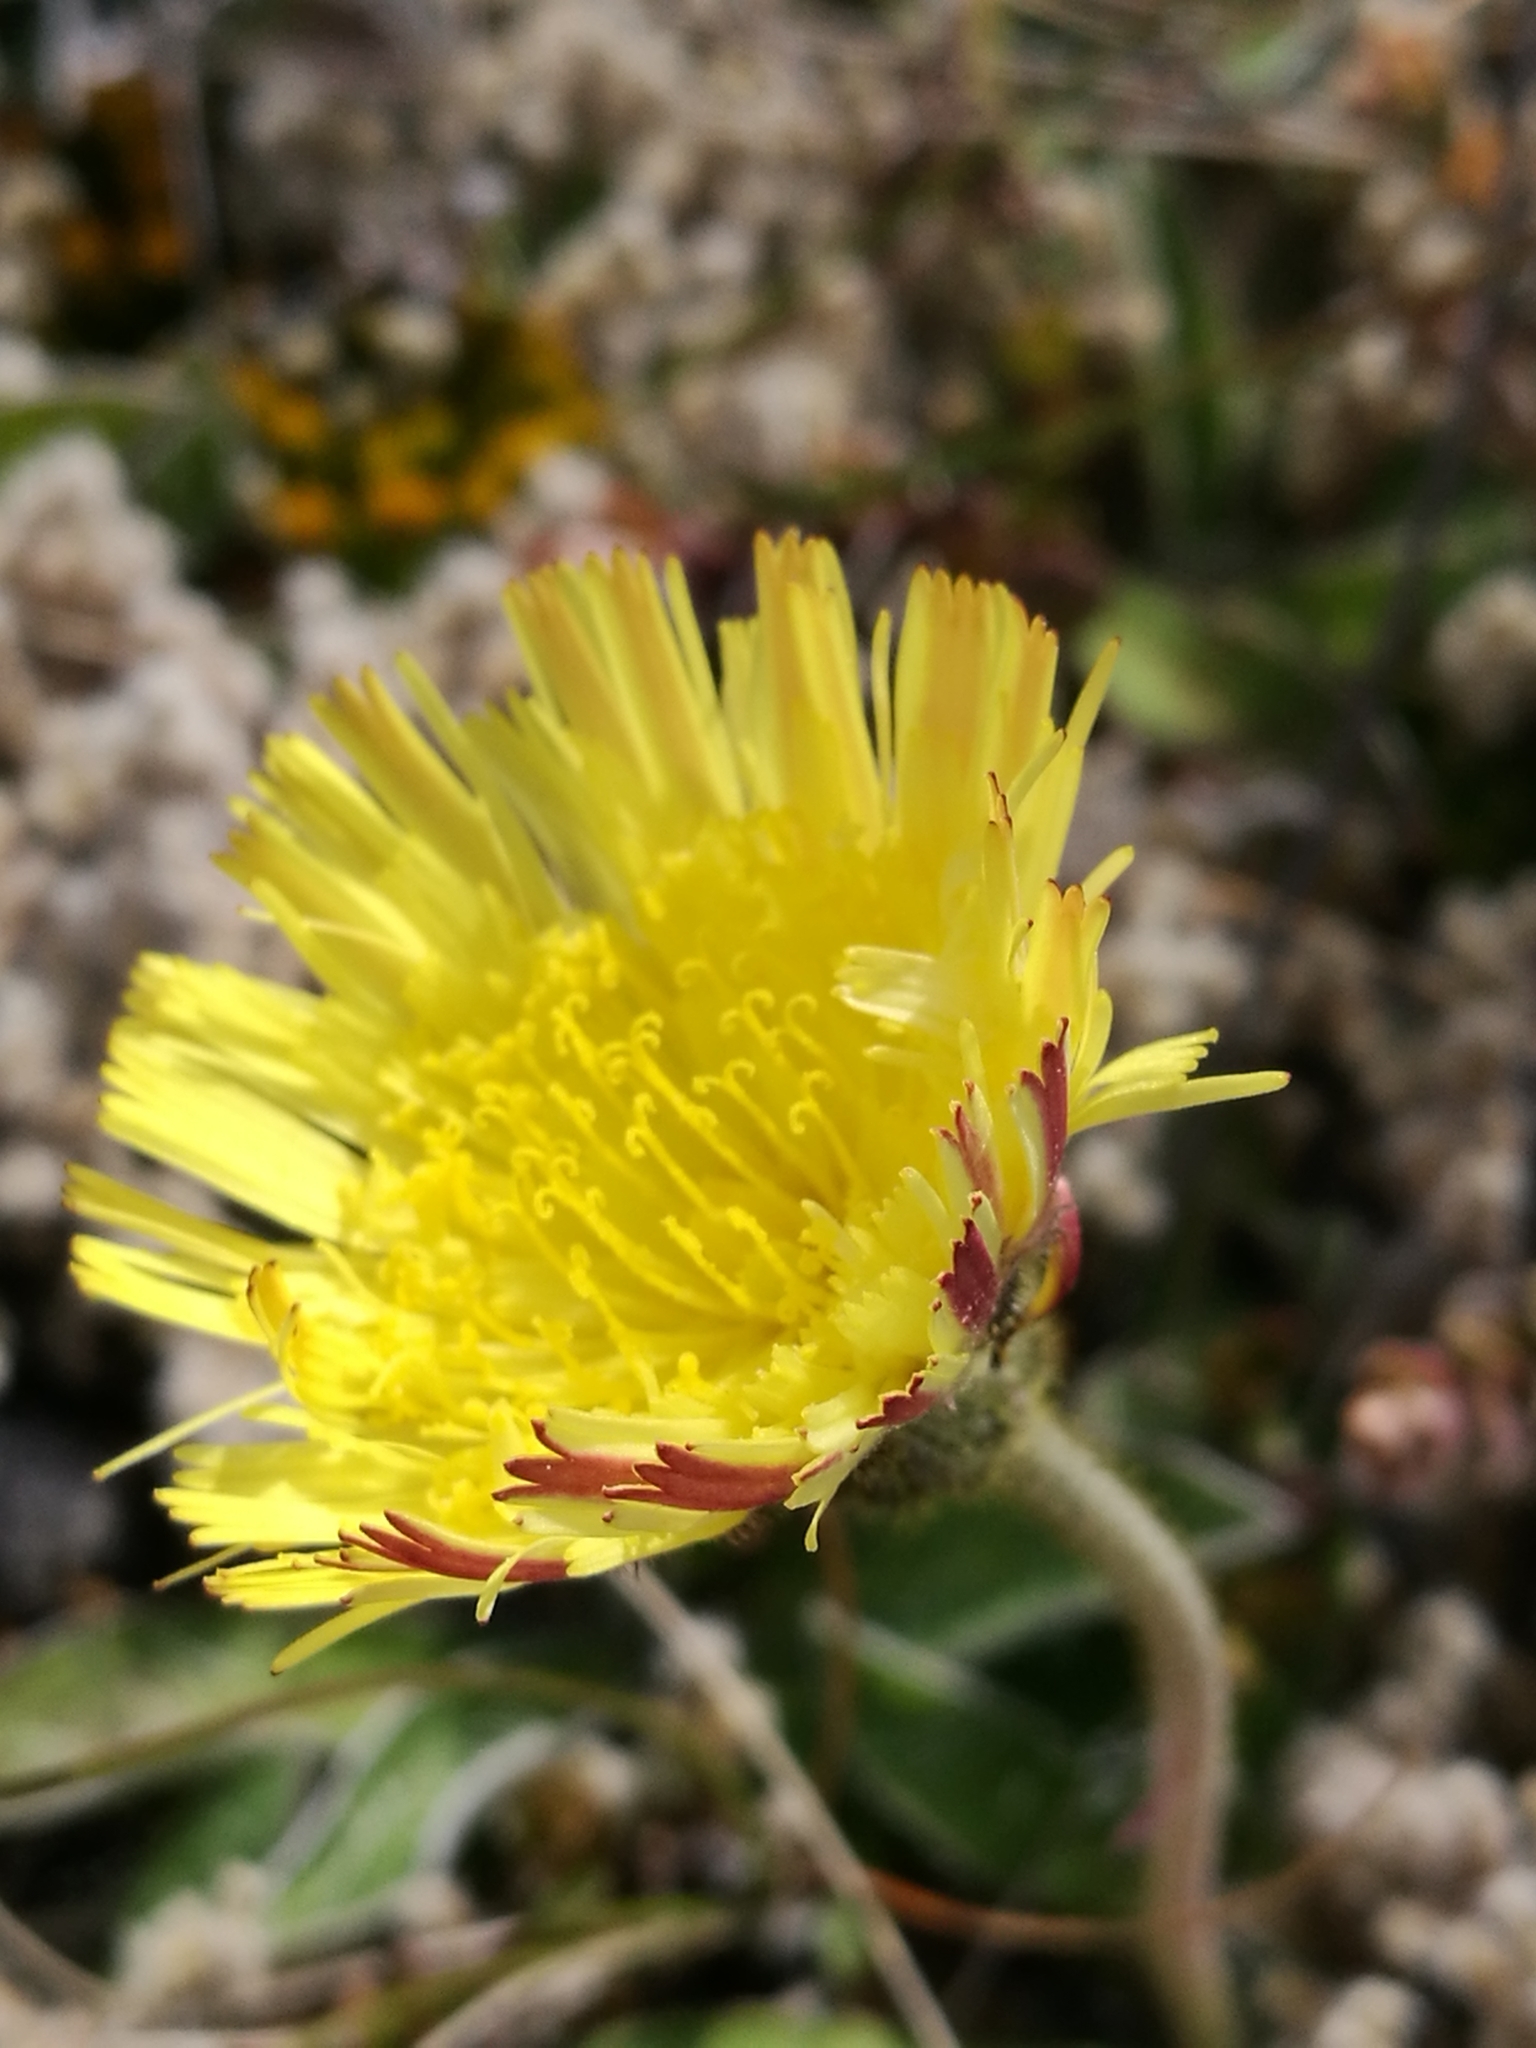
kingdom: Plantae
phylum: Tracheophyta
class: Magnoliopsida
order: Asterales
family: Asteraceae
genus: Pilosella
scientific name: Pilosella officinarum
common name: Mouse-ear hawkweed
